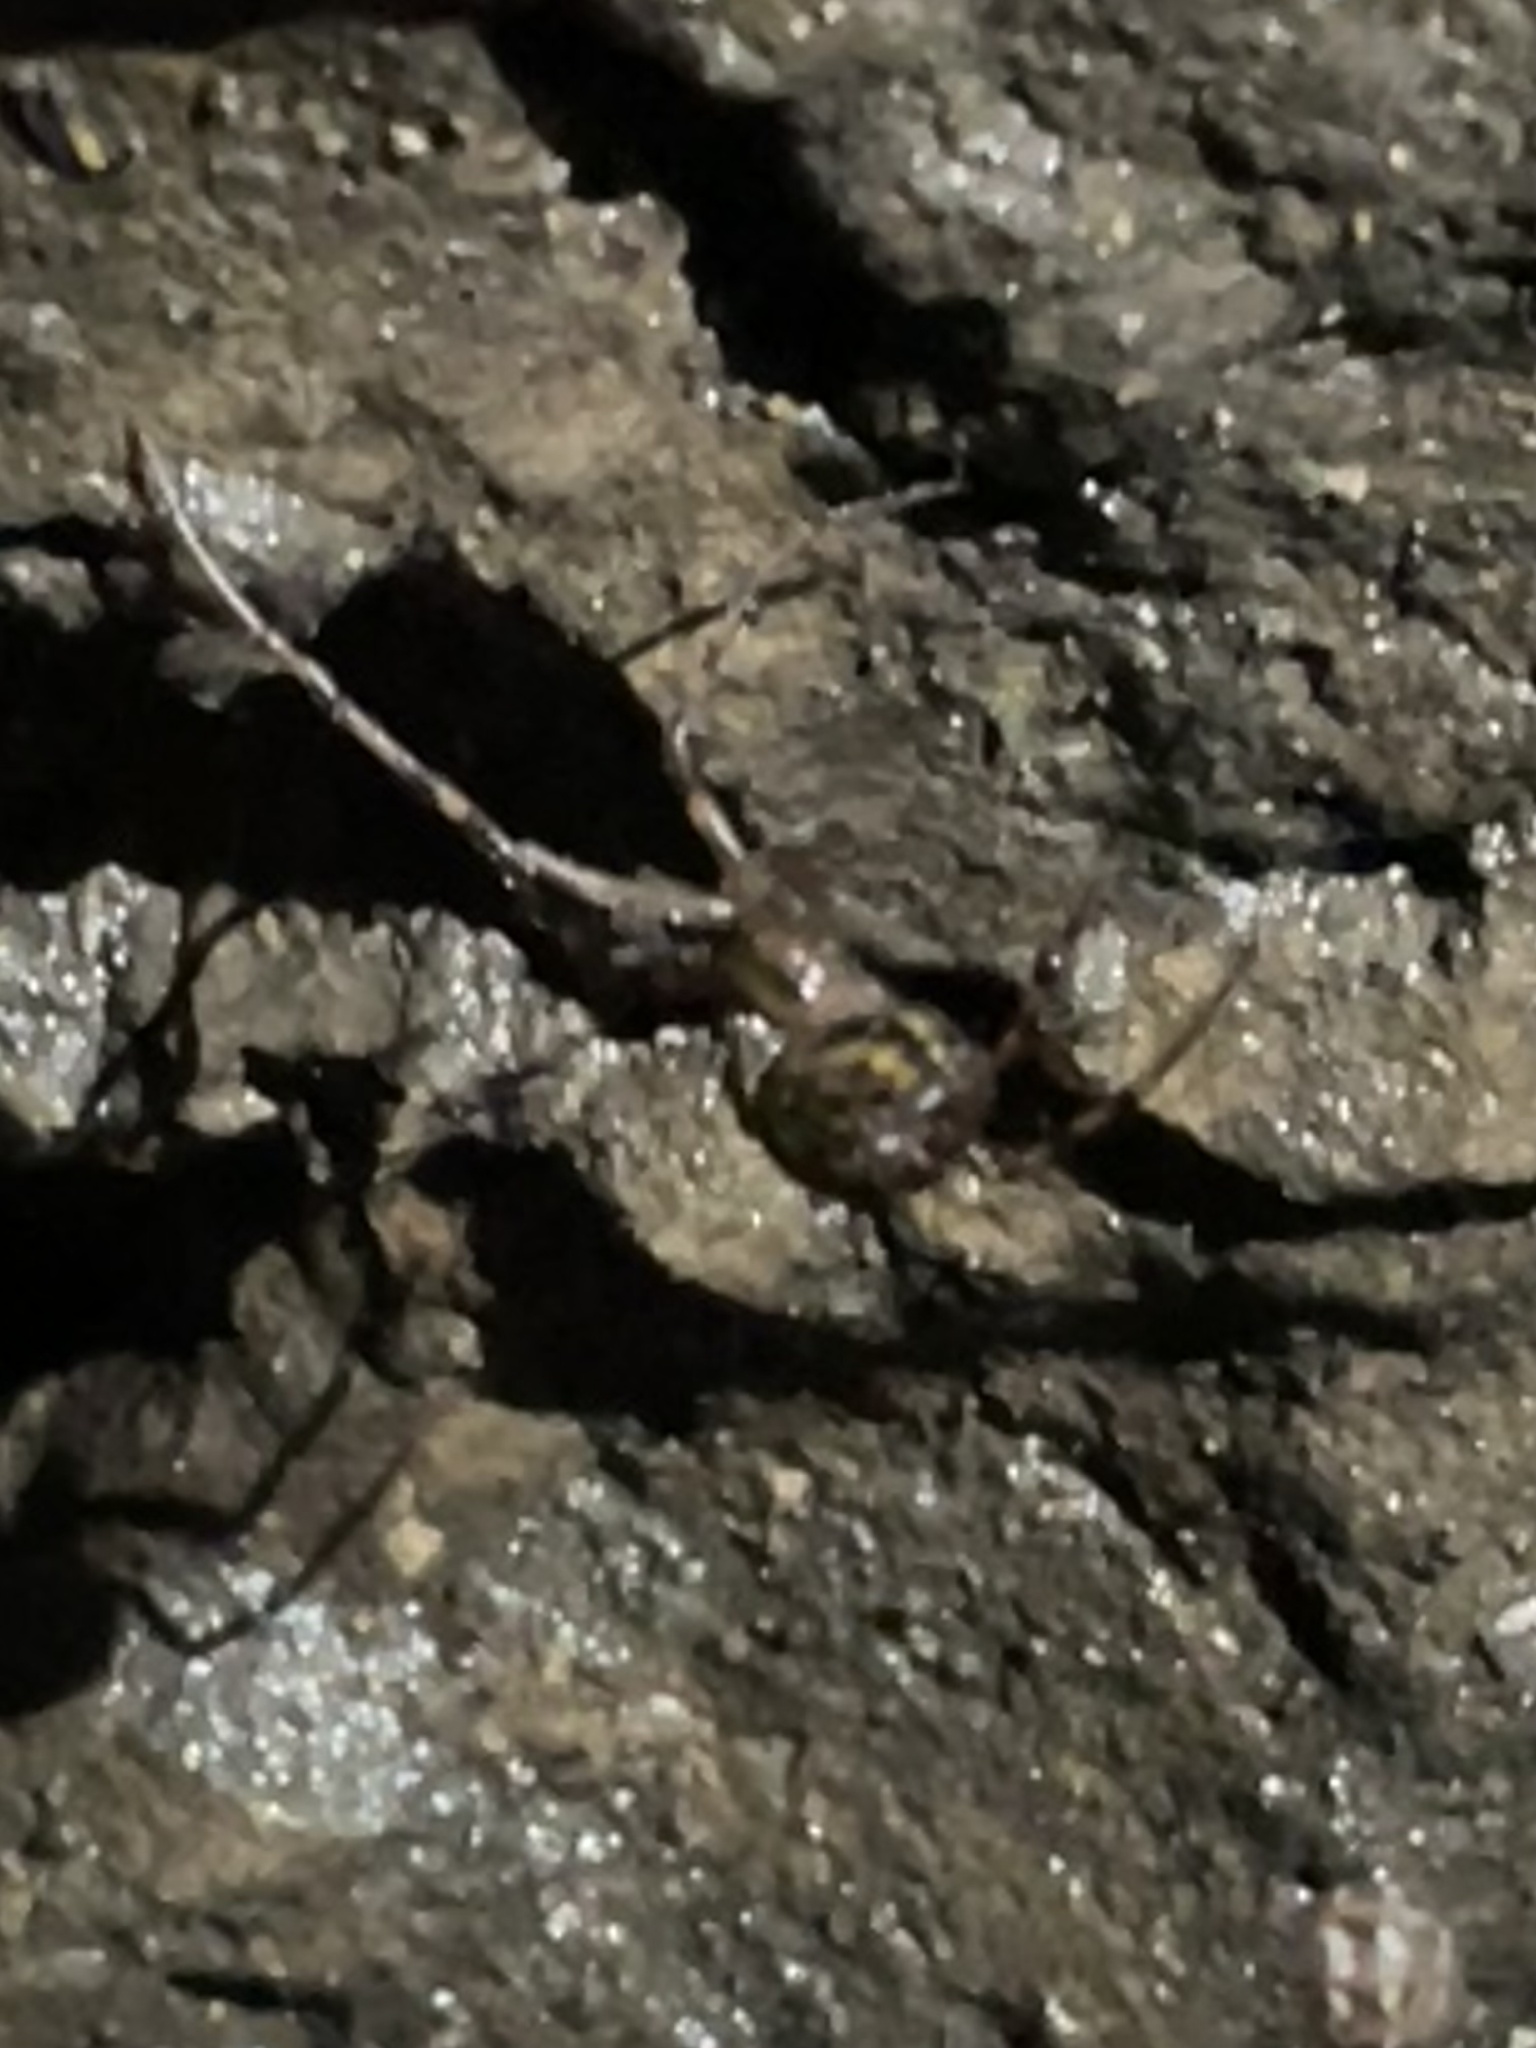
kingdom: Animalia
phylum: Arthropoda
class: Arachnida
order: Araneae
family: Tetragnathidae
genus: Meta
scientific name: Meta menardi
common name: Cave spider
